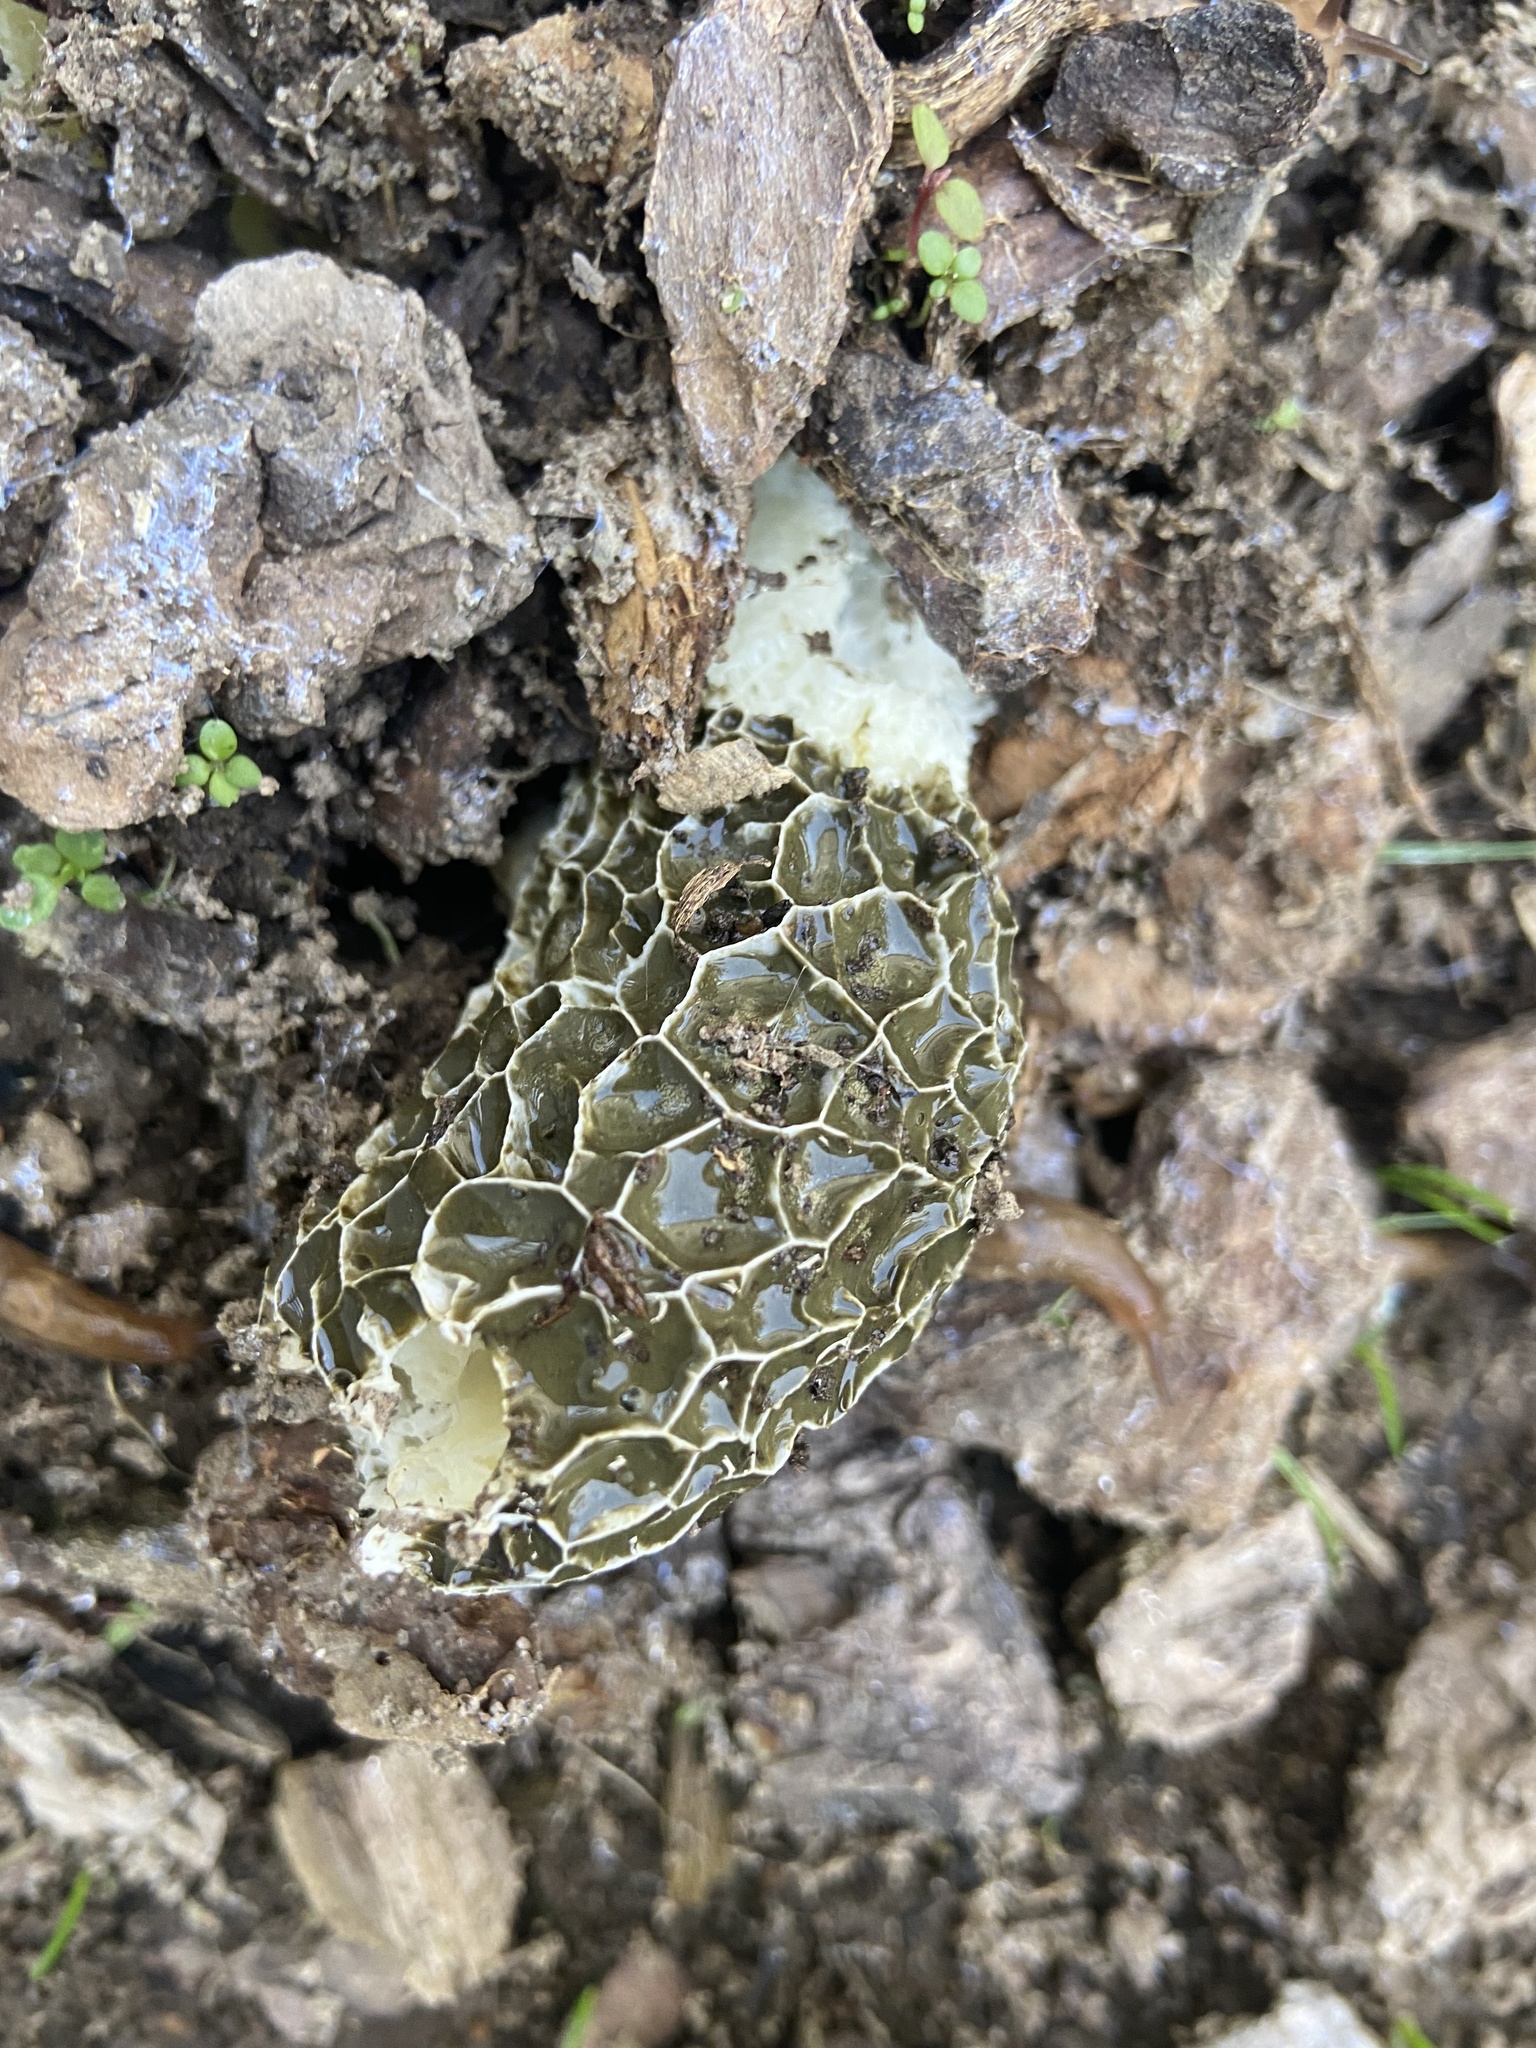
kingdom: Fungi
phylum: Basidiomycota
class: Agaricomycetes
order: Phallales
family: Phallaceae
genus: Phallus
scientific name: Phallus hadriani
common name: Sand stinkhorn
